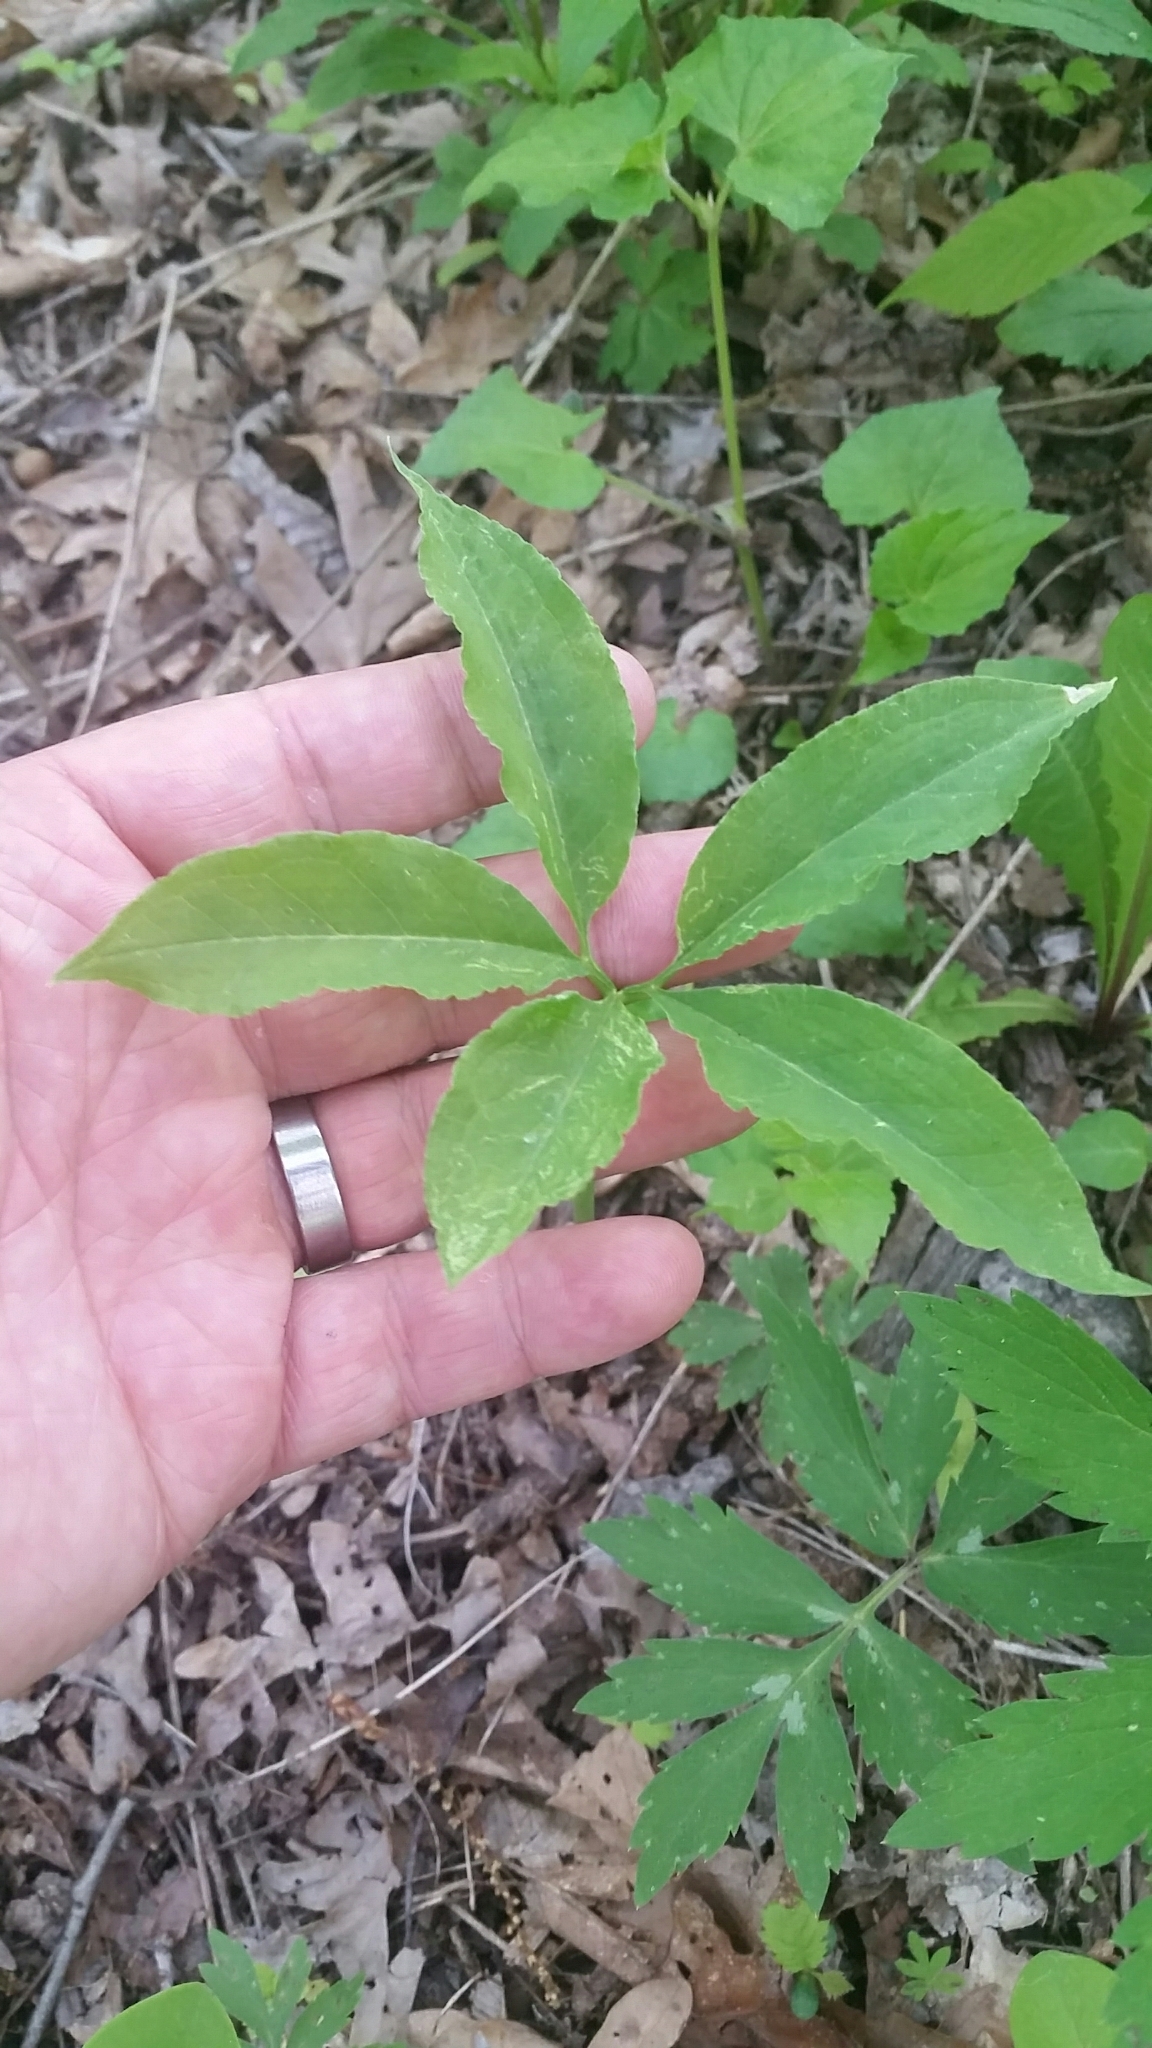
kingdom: Plantae
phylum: Tracheophyta
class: Liliopsida
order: Alismatales
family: Araceae
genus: Arisaema
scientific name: Arisaema dracontium
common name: Dragon-arum
